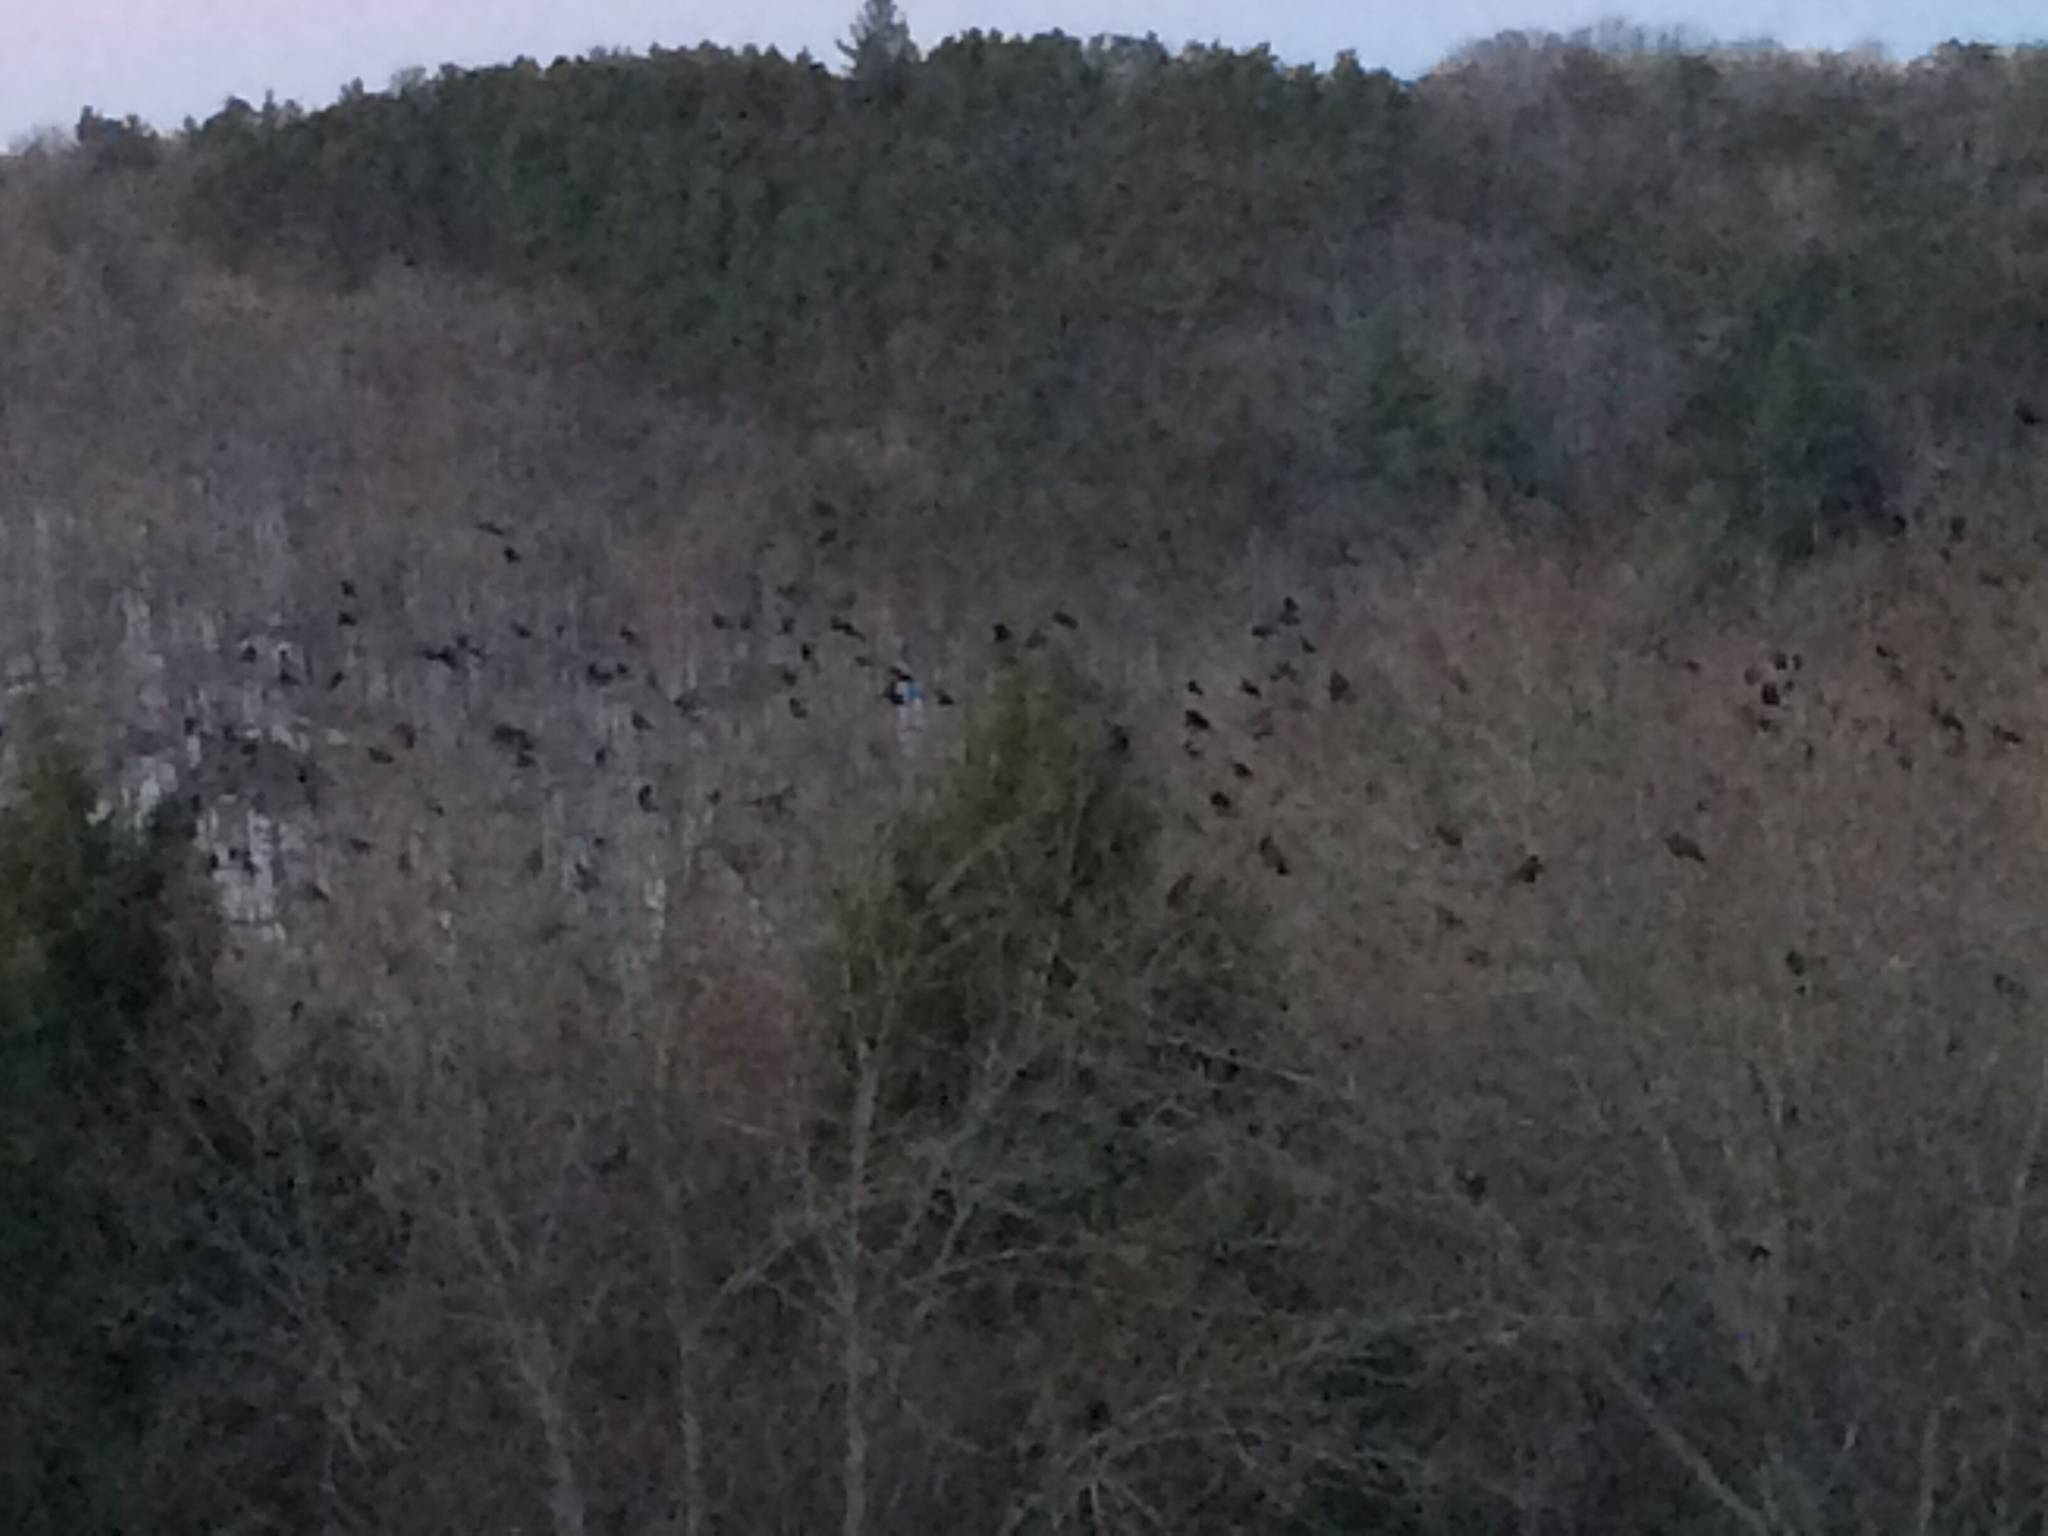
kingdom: Animalia
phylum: Chordata
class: Aves
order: Passeriformes
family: Corvidae
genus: Corvus
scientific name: Corvus brachyrhynchos
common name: American crow
